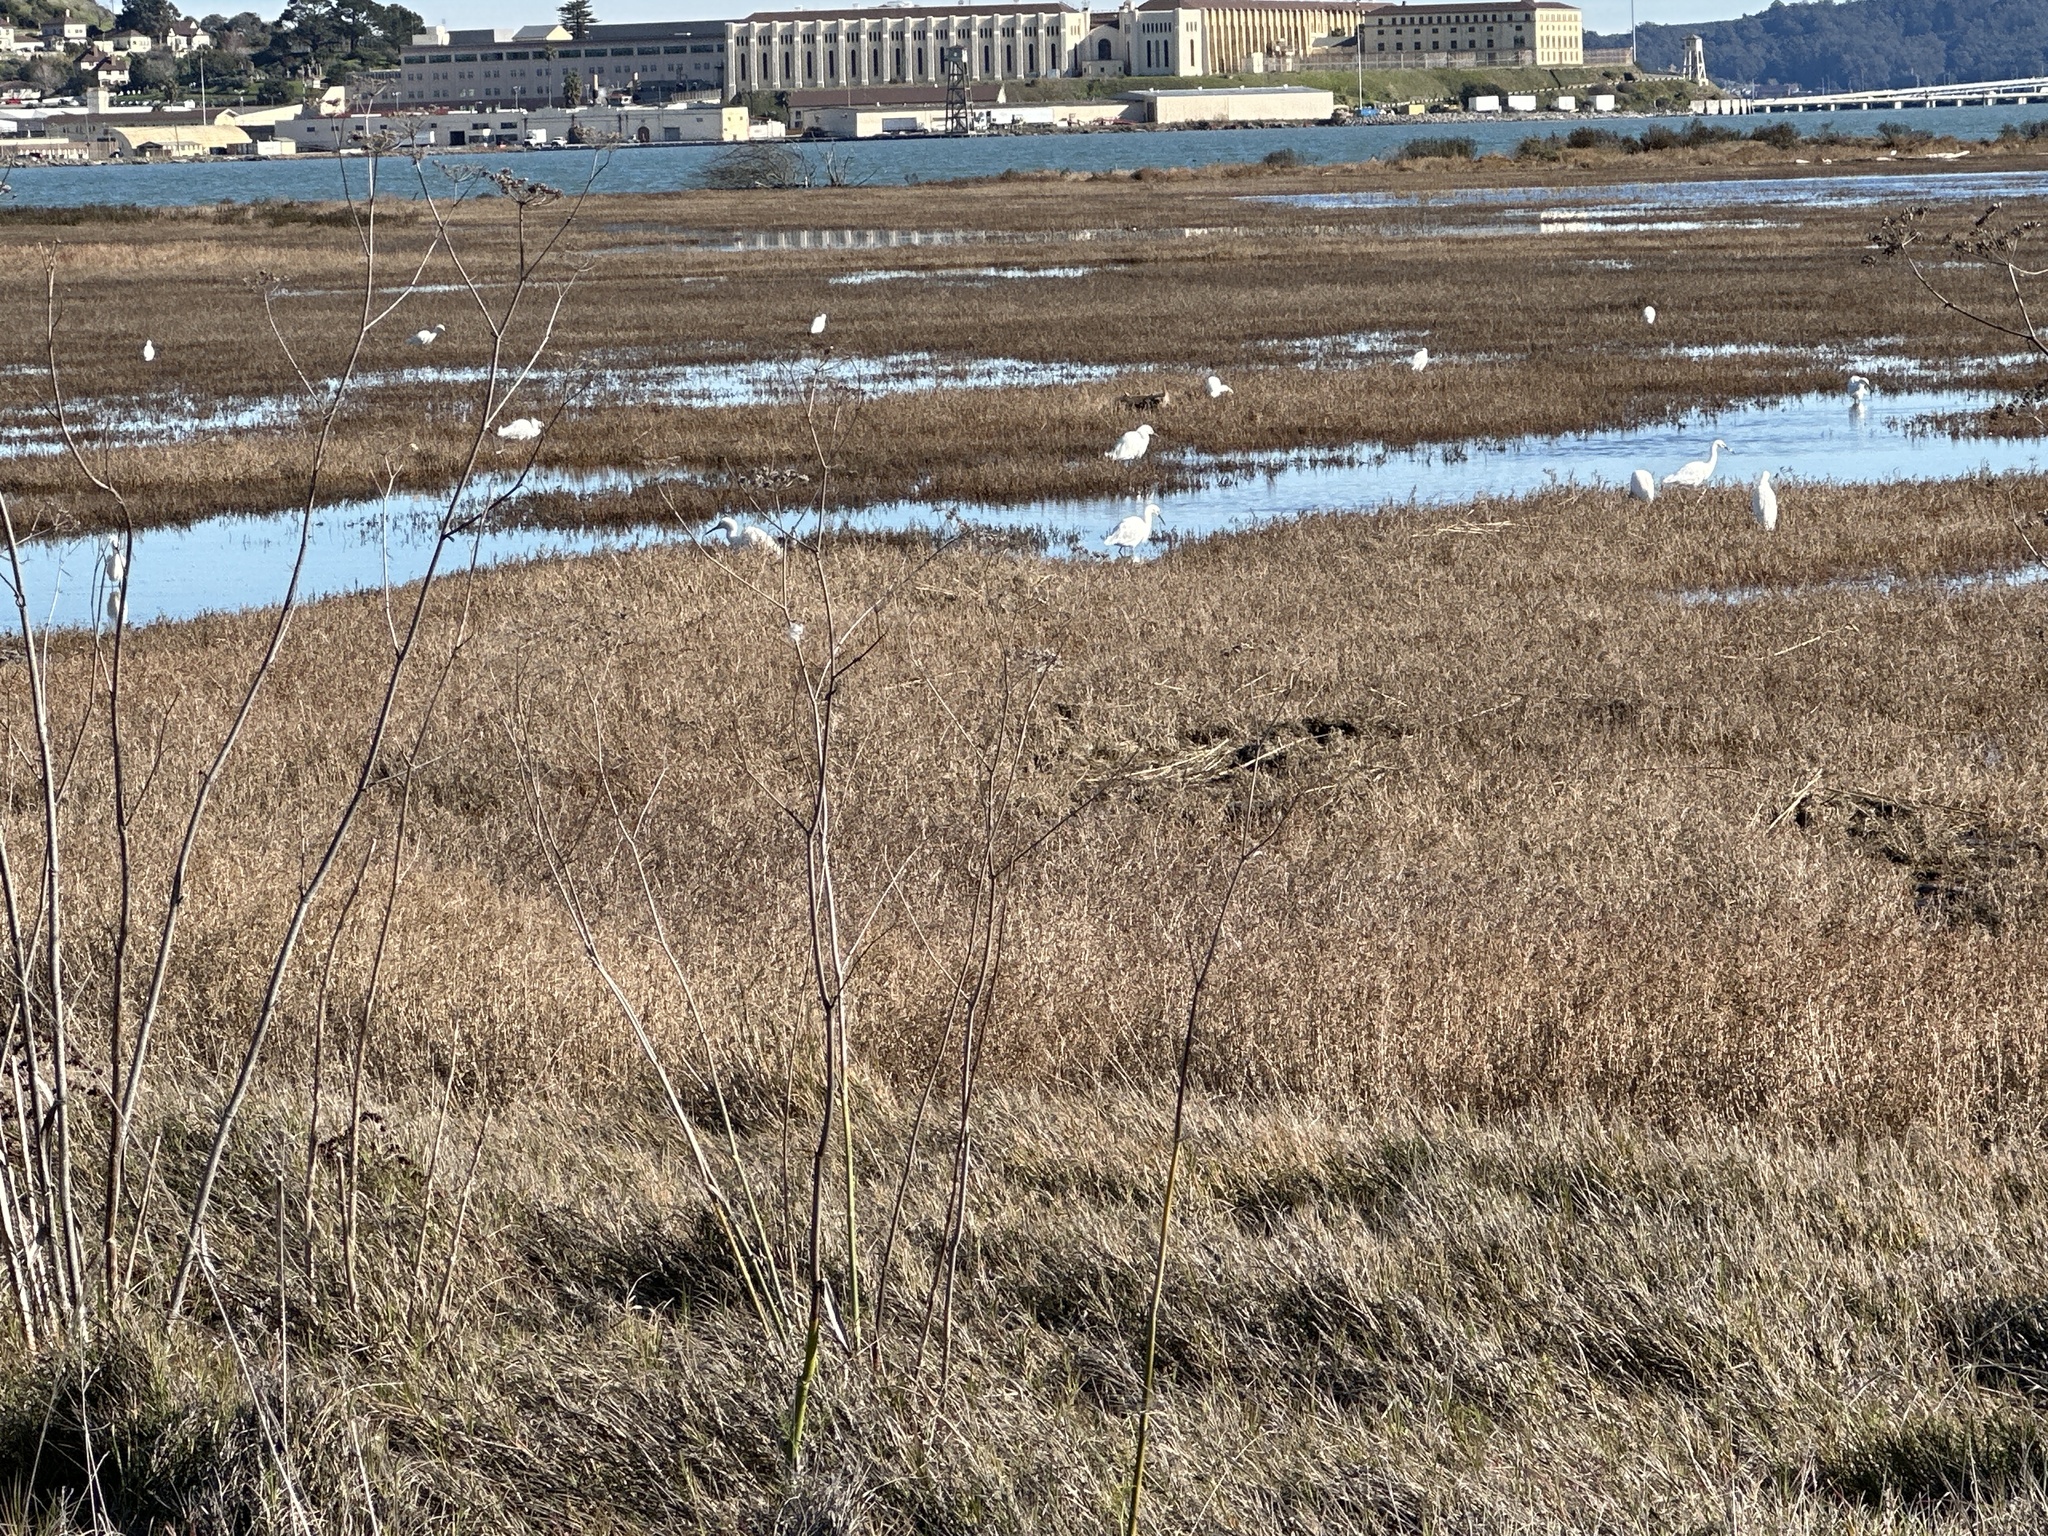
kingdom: Animalia
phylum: Chordata
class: Aves
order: Pelecaniformes
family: Ardeidae
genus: Egretta
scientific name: Egretta thula
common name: Snowy egret
